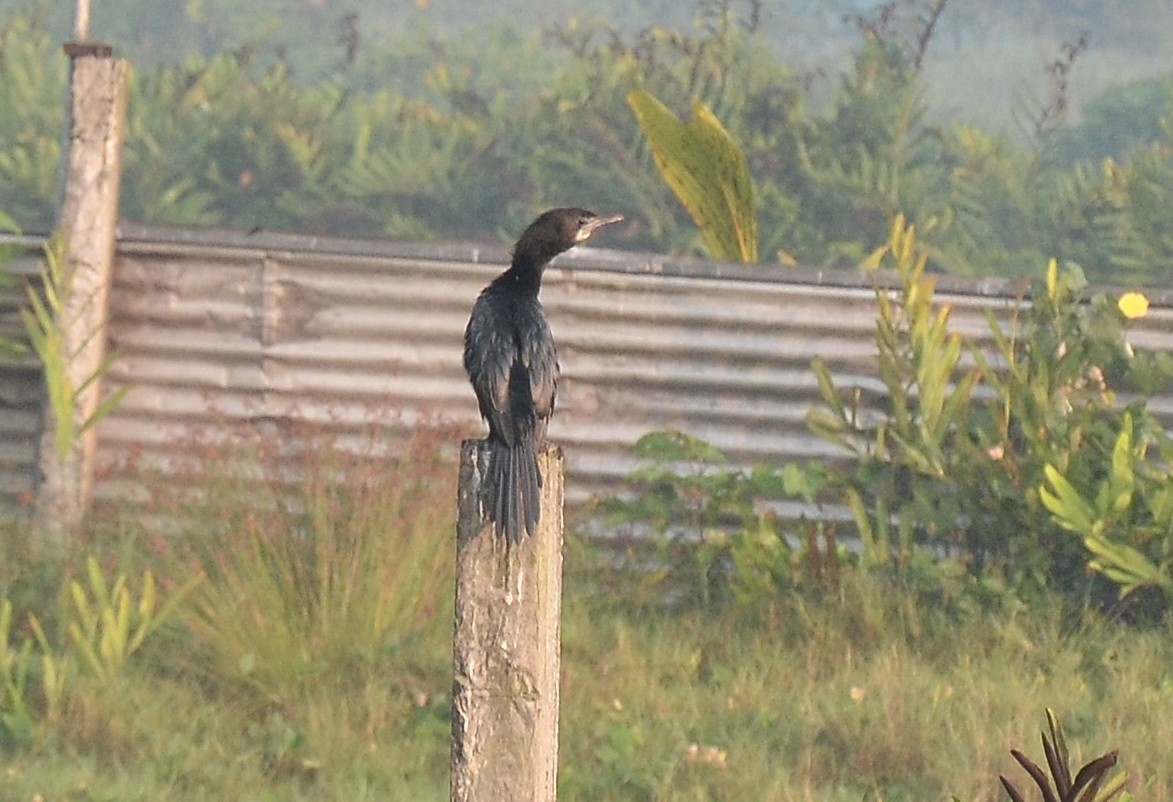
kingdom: Animalia
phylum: Chordata
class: Aves
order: Suliformes
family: Phalacrocoracidae
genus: Microcarbo
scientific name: Microcarbo niger
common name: Little cormorant
